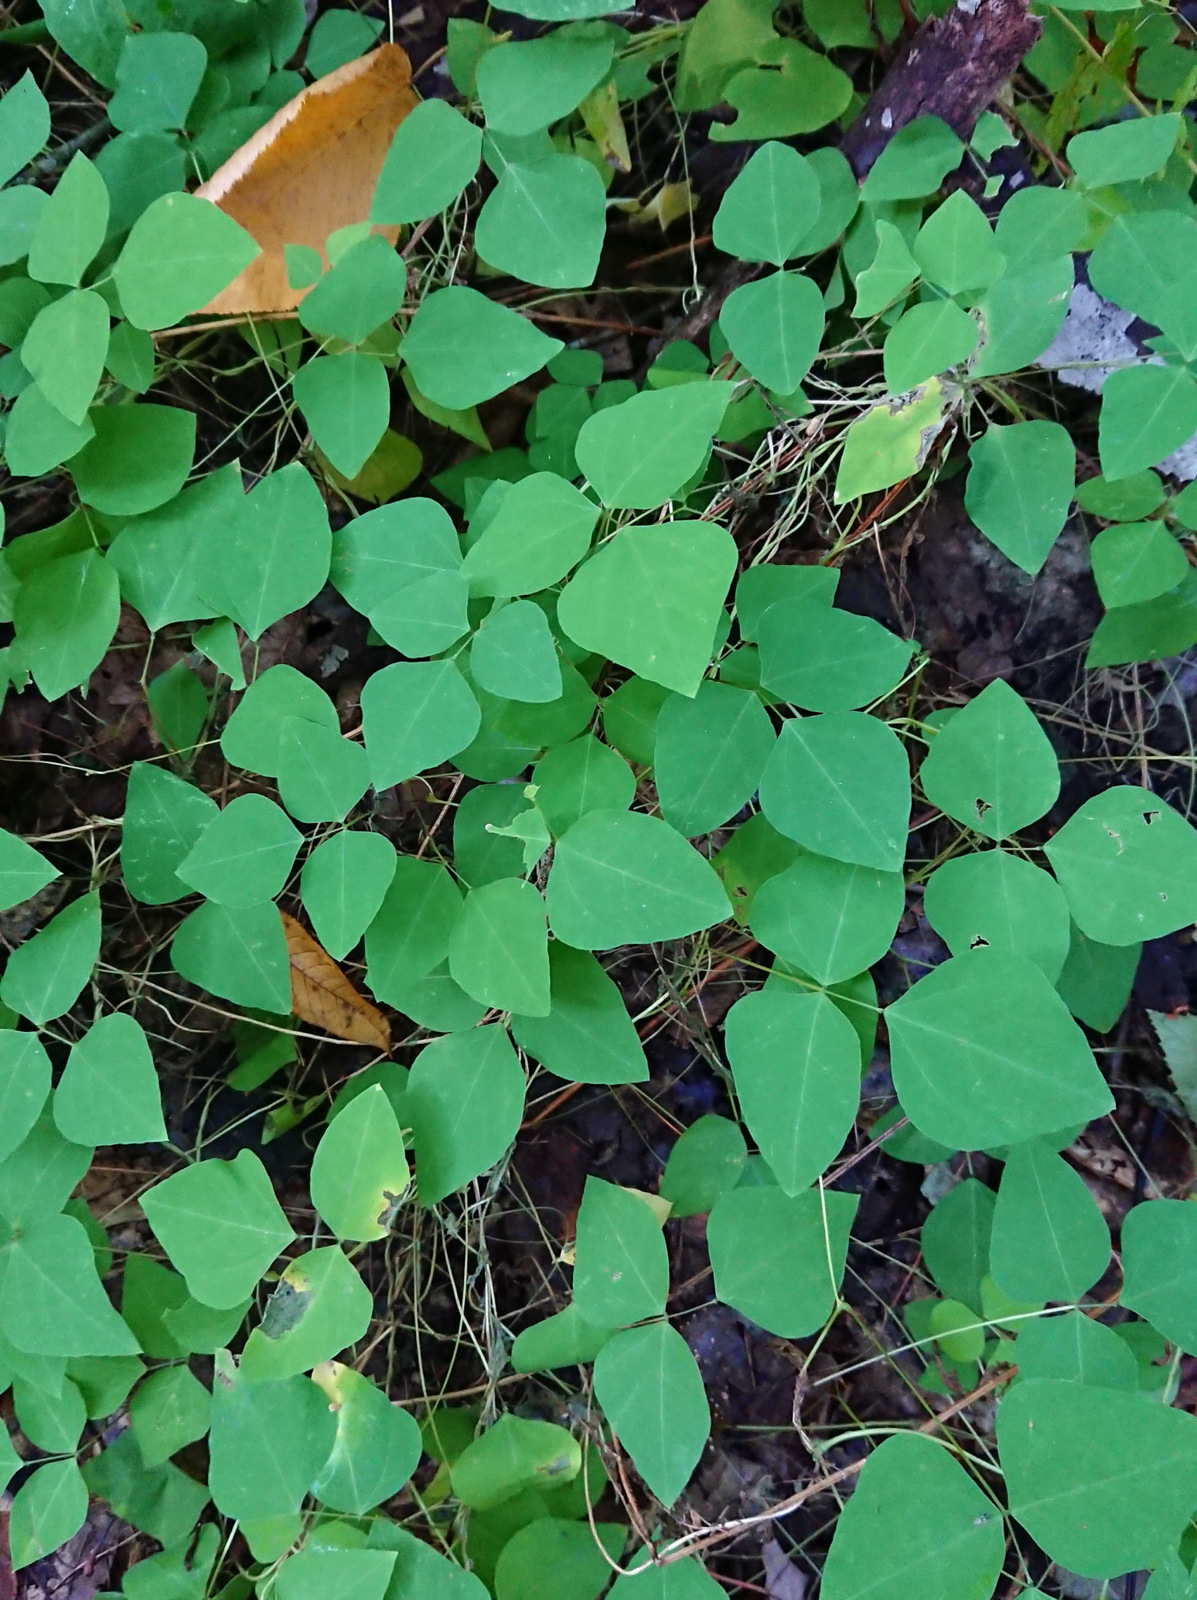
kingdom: Plantae
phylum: Tracheophyta
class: Magnoliopsida
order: Fabales
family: Fabaceae
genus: Amphicarpaea
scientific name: Amphicarpaea bracteata
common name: American hog peanut
